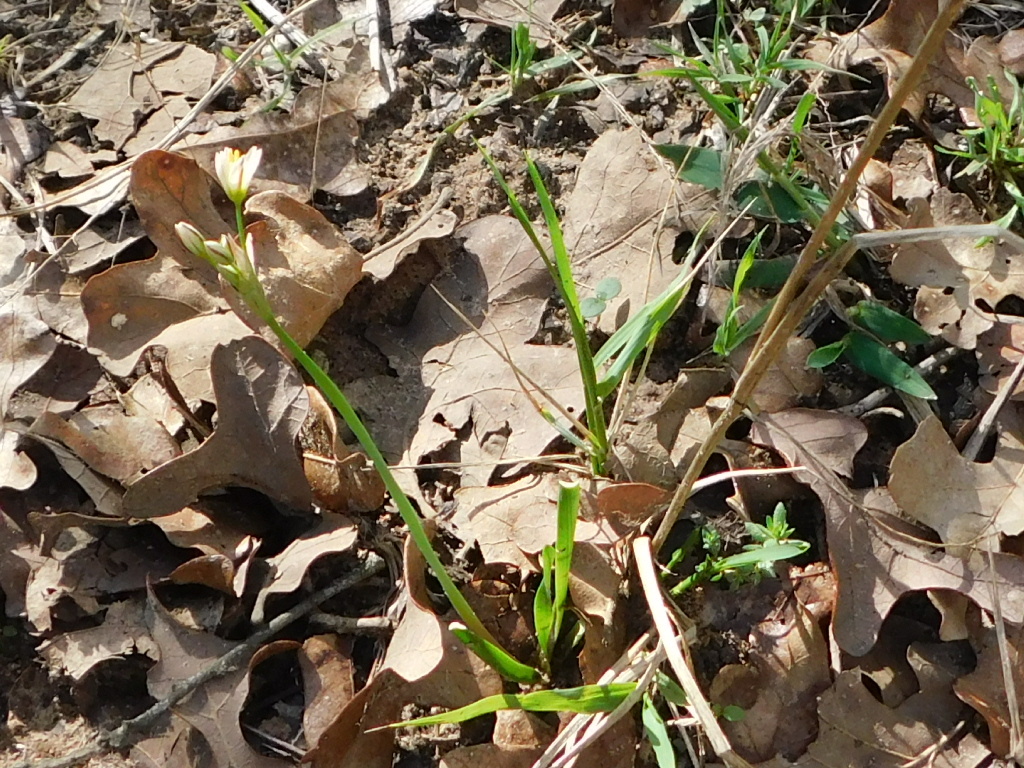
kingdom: Plantae
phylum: Tracheophyta
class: Liliopsida
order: Asparagales
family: Amaryllidaceae
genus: Nothoscordum
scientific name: Nothoscordum bivalve
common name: Crow-poison
